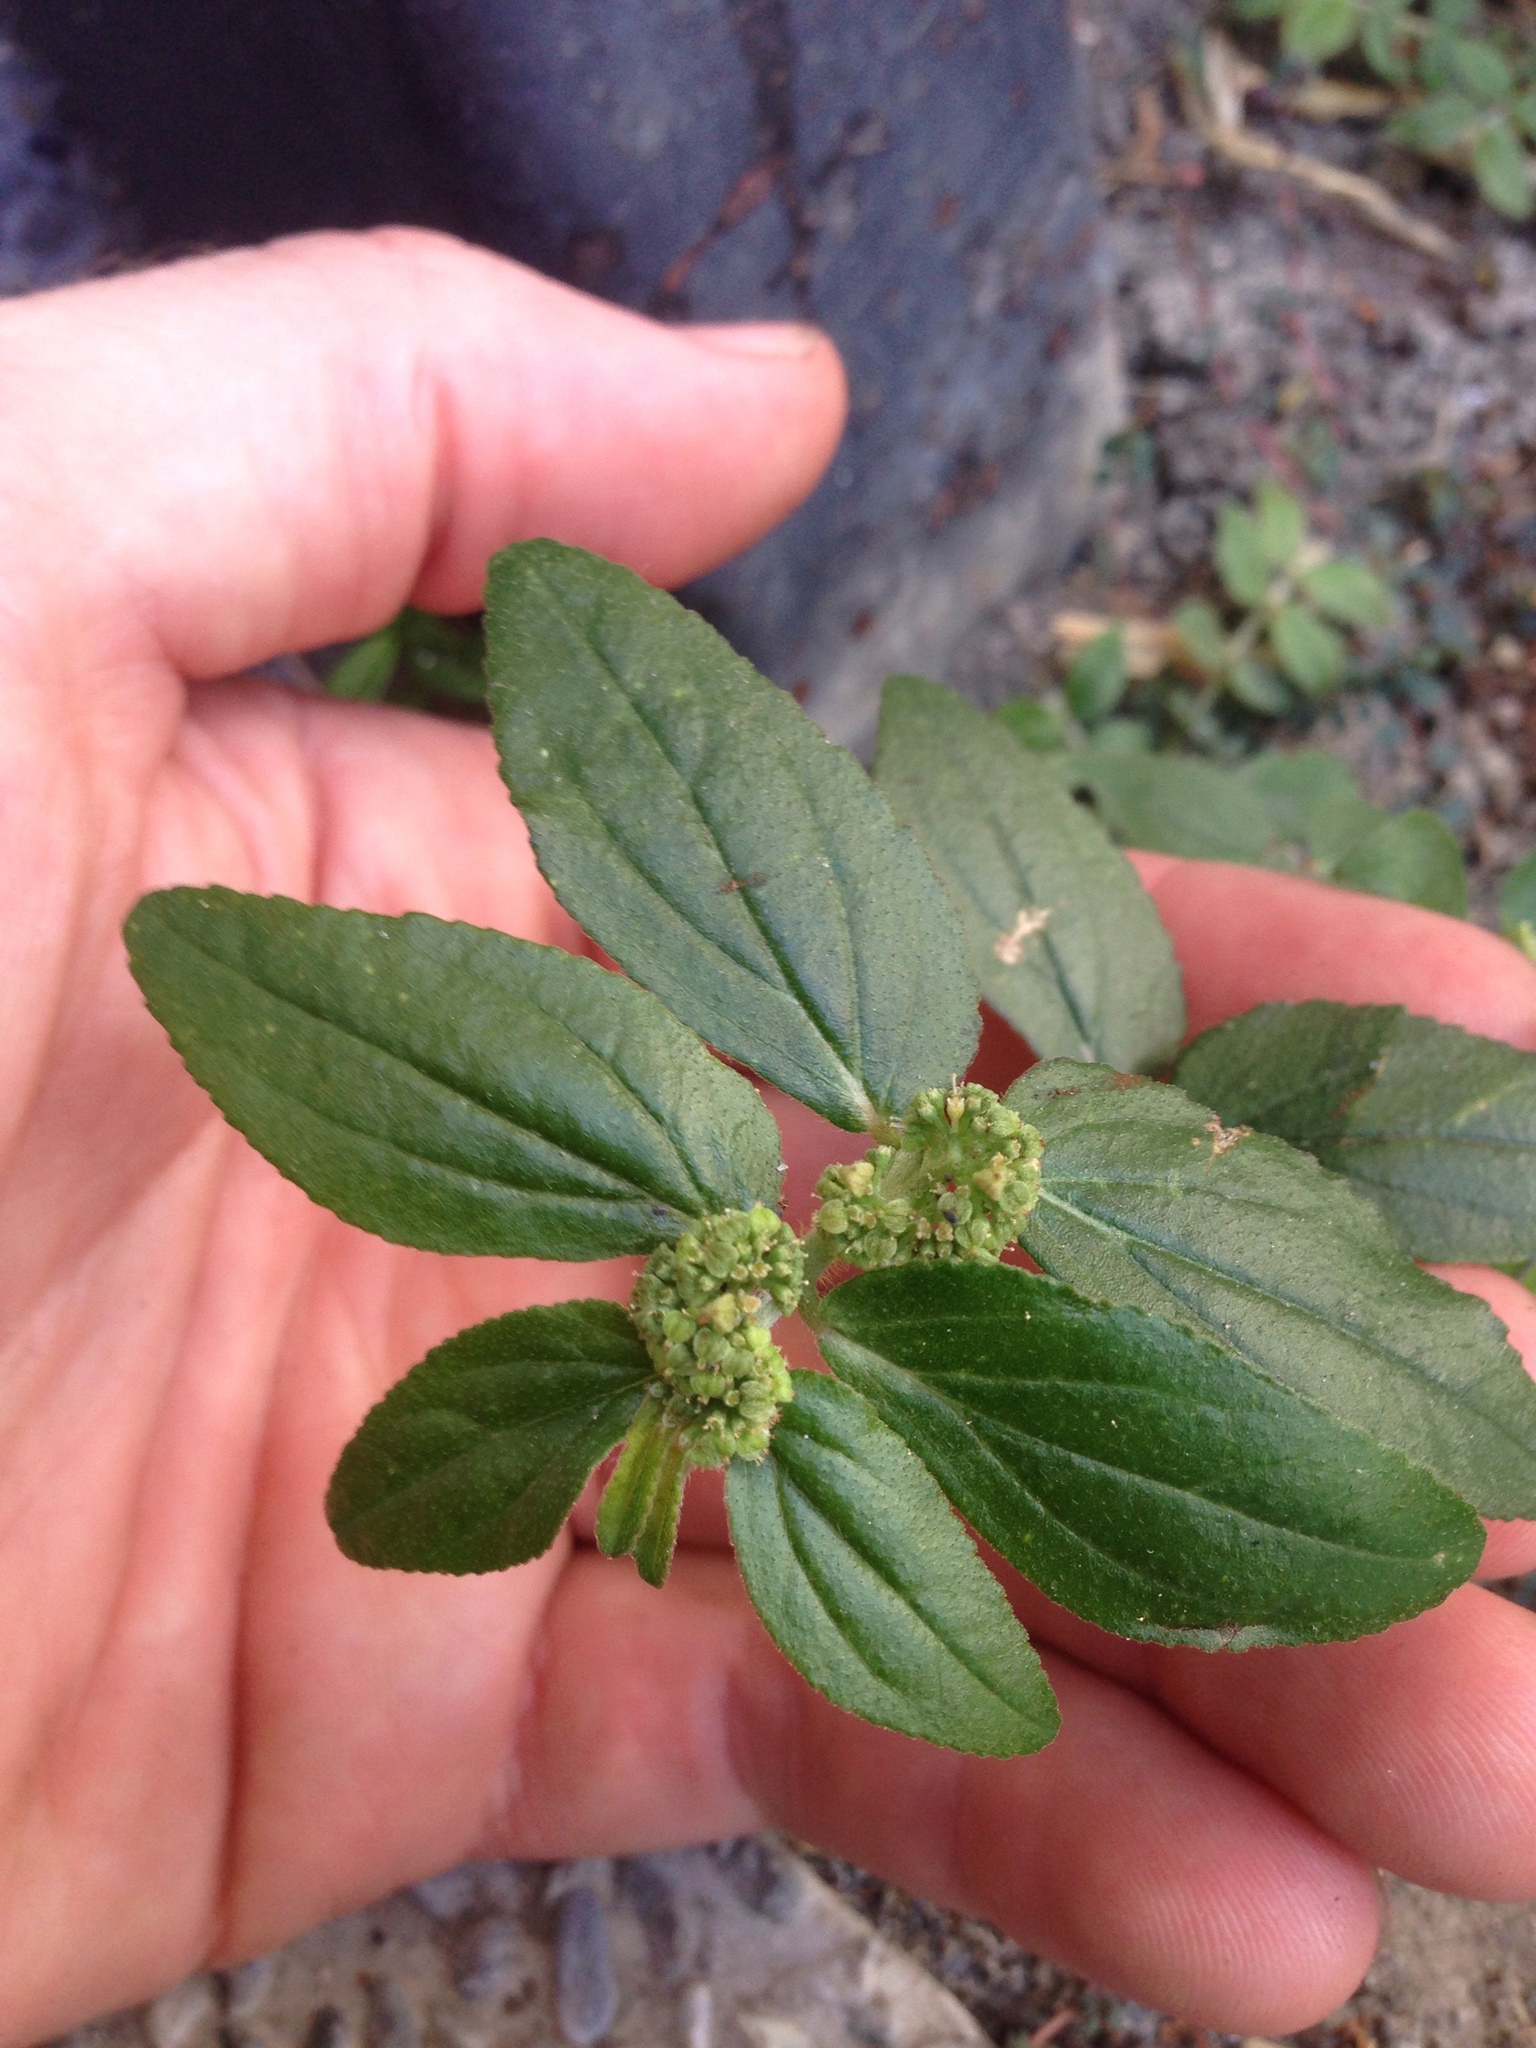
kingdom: Plantae
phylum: Tracheophyta
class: Magnoliopsida
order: Malpighiales
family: Euphorbiaceae
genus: Euphorbia
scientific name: Euphorbia hirta
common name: Pillpod sandmat
